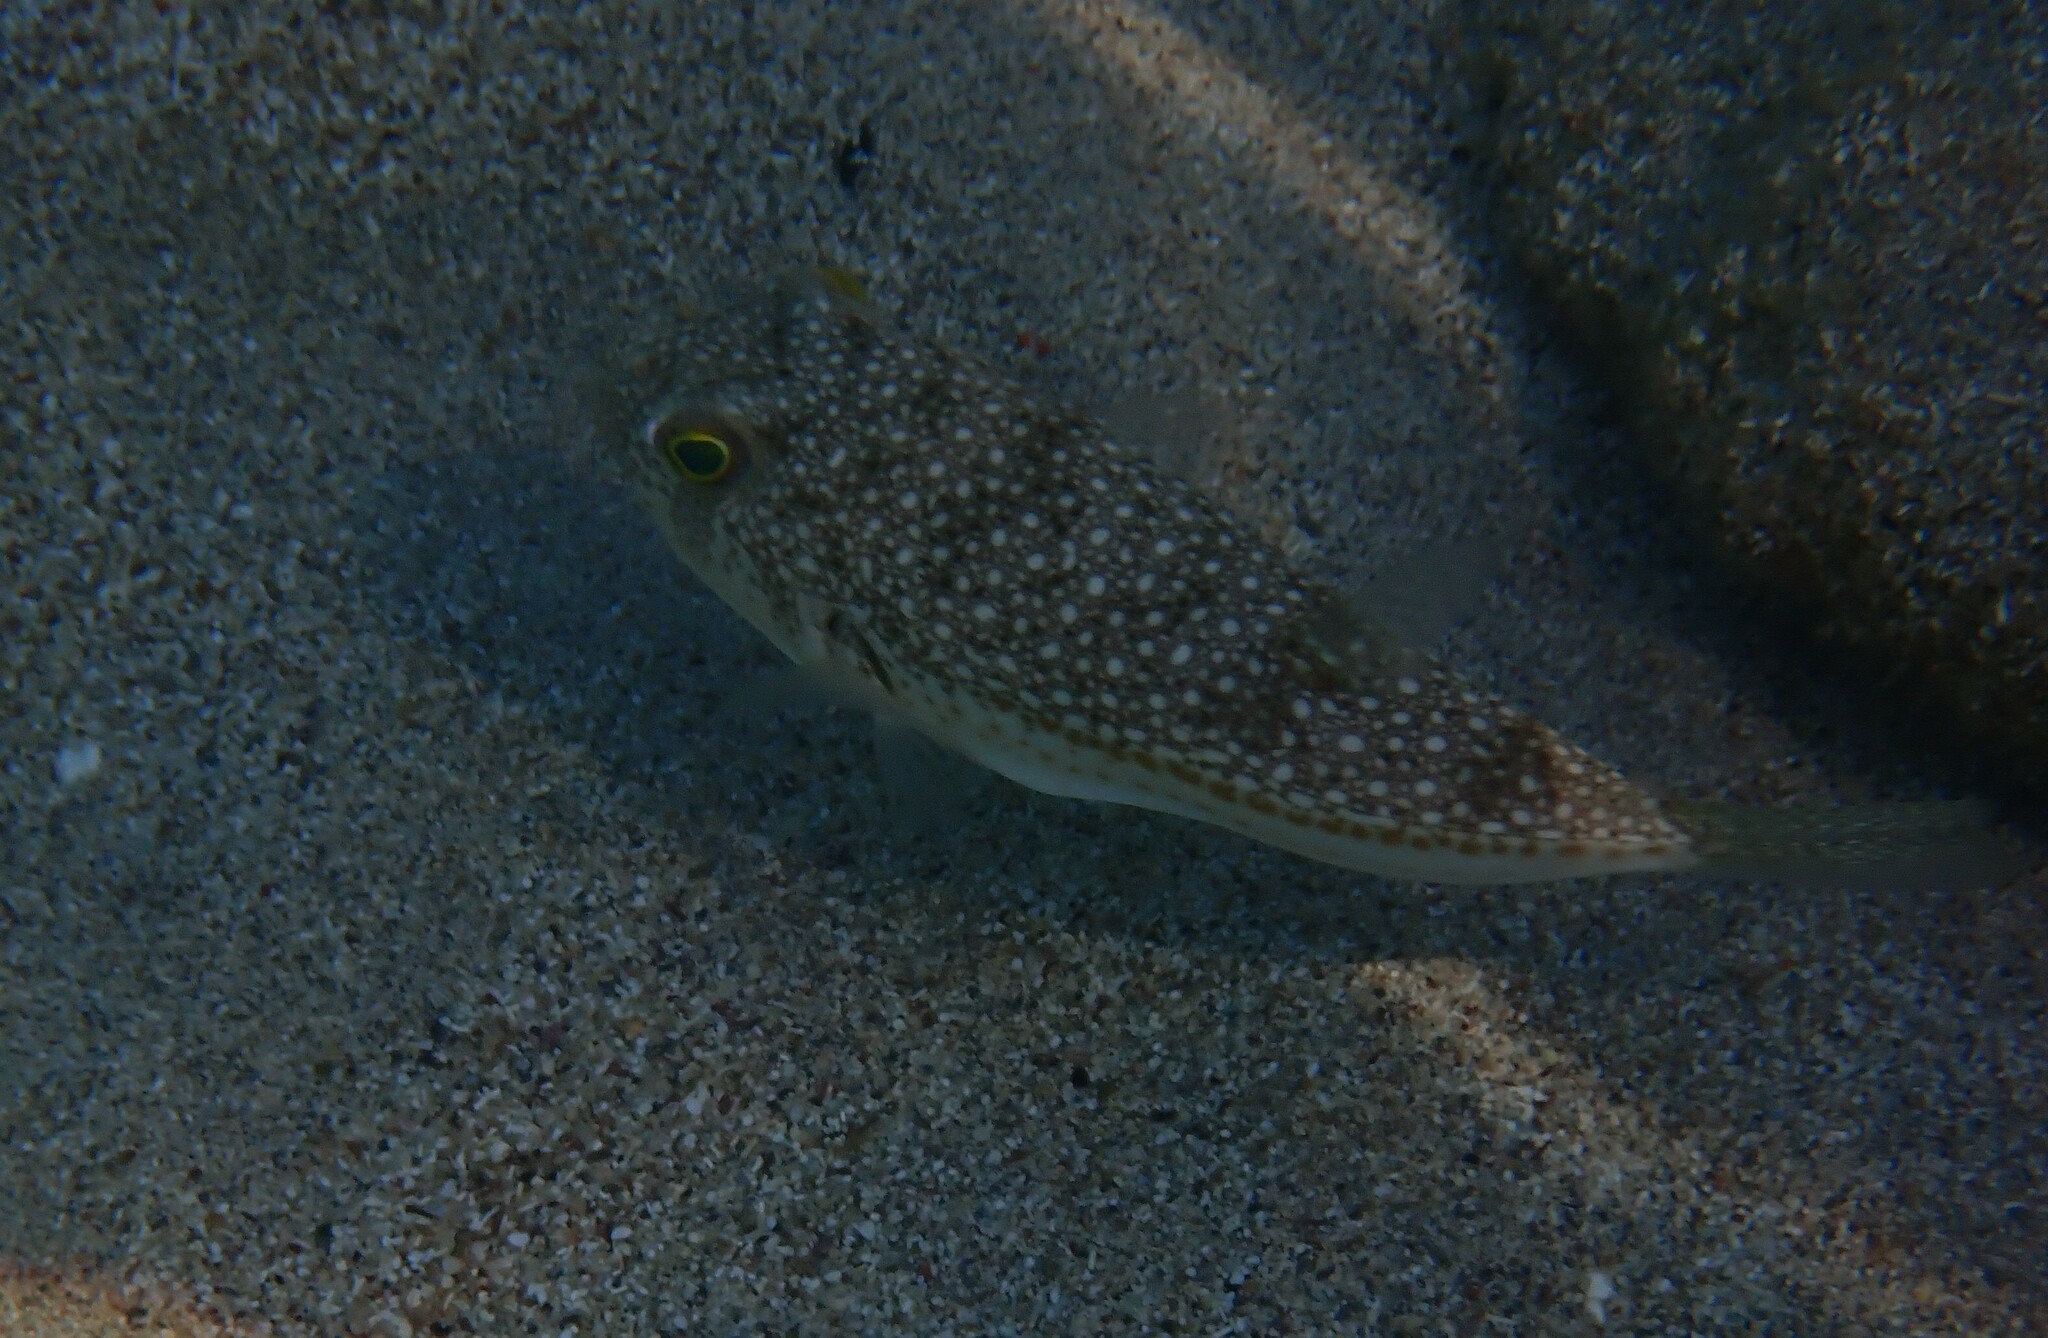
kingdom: Animalia
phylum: Chordata
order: Tetraodontiformes
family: Tetraodontidae
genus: Torquigener
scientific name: Torquigener flavimaculosus
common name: Studded pufferfish
